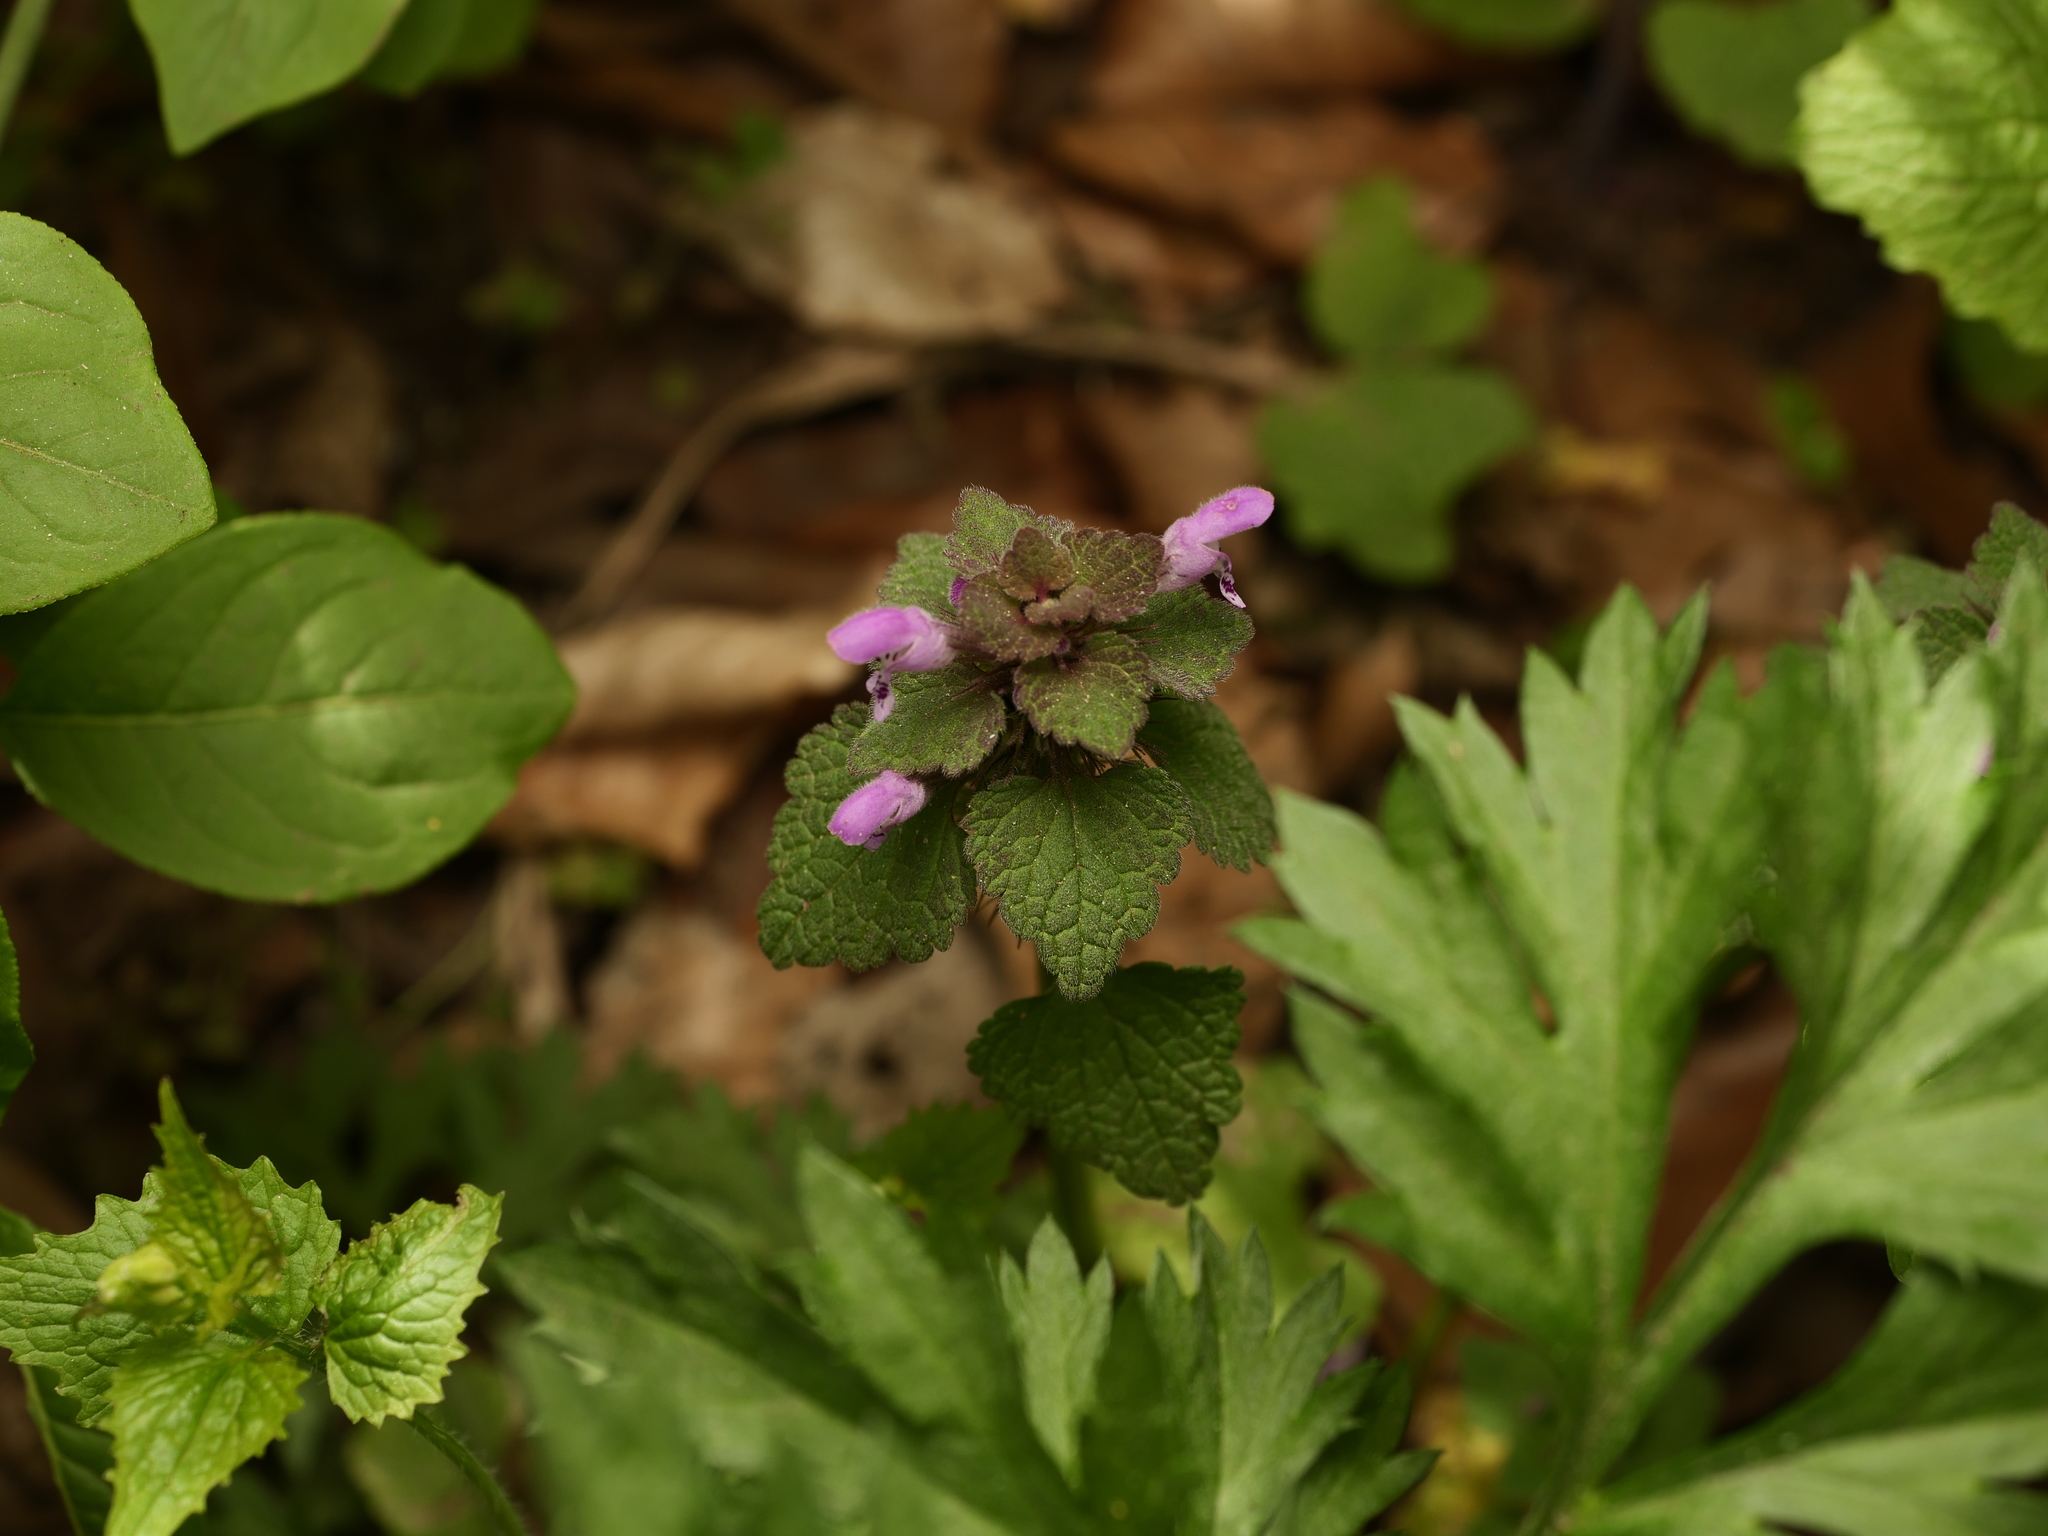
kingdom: Plantae
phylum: Tracheophyta
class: Magnoliopsida
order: Lamiales
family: Lamiaceae
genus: Lamium
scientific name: Lamium purpureum
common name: Red dead-nettle
